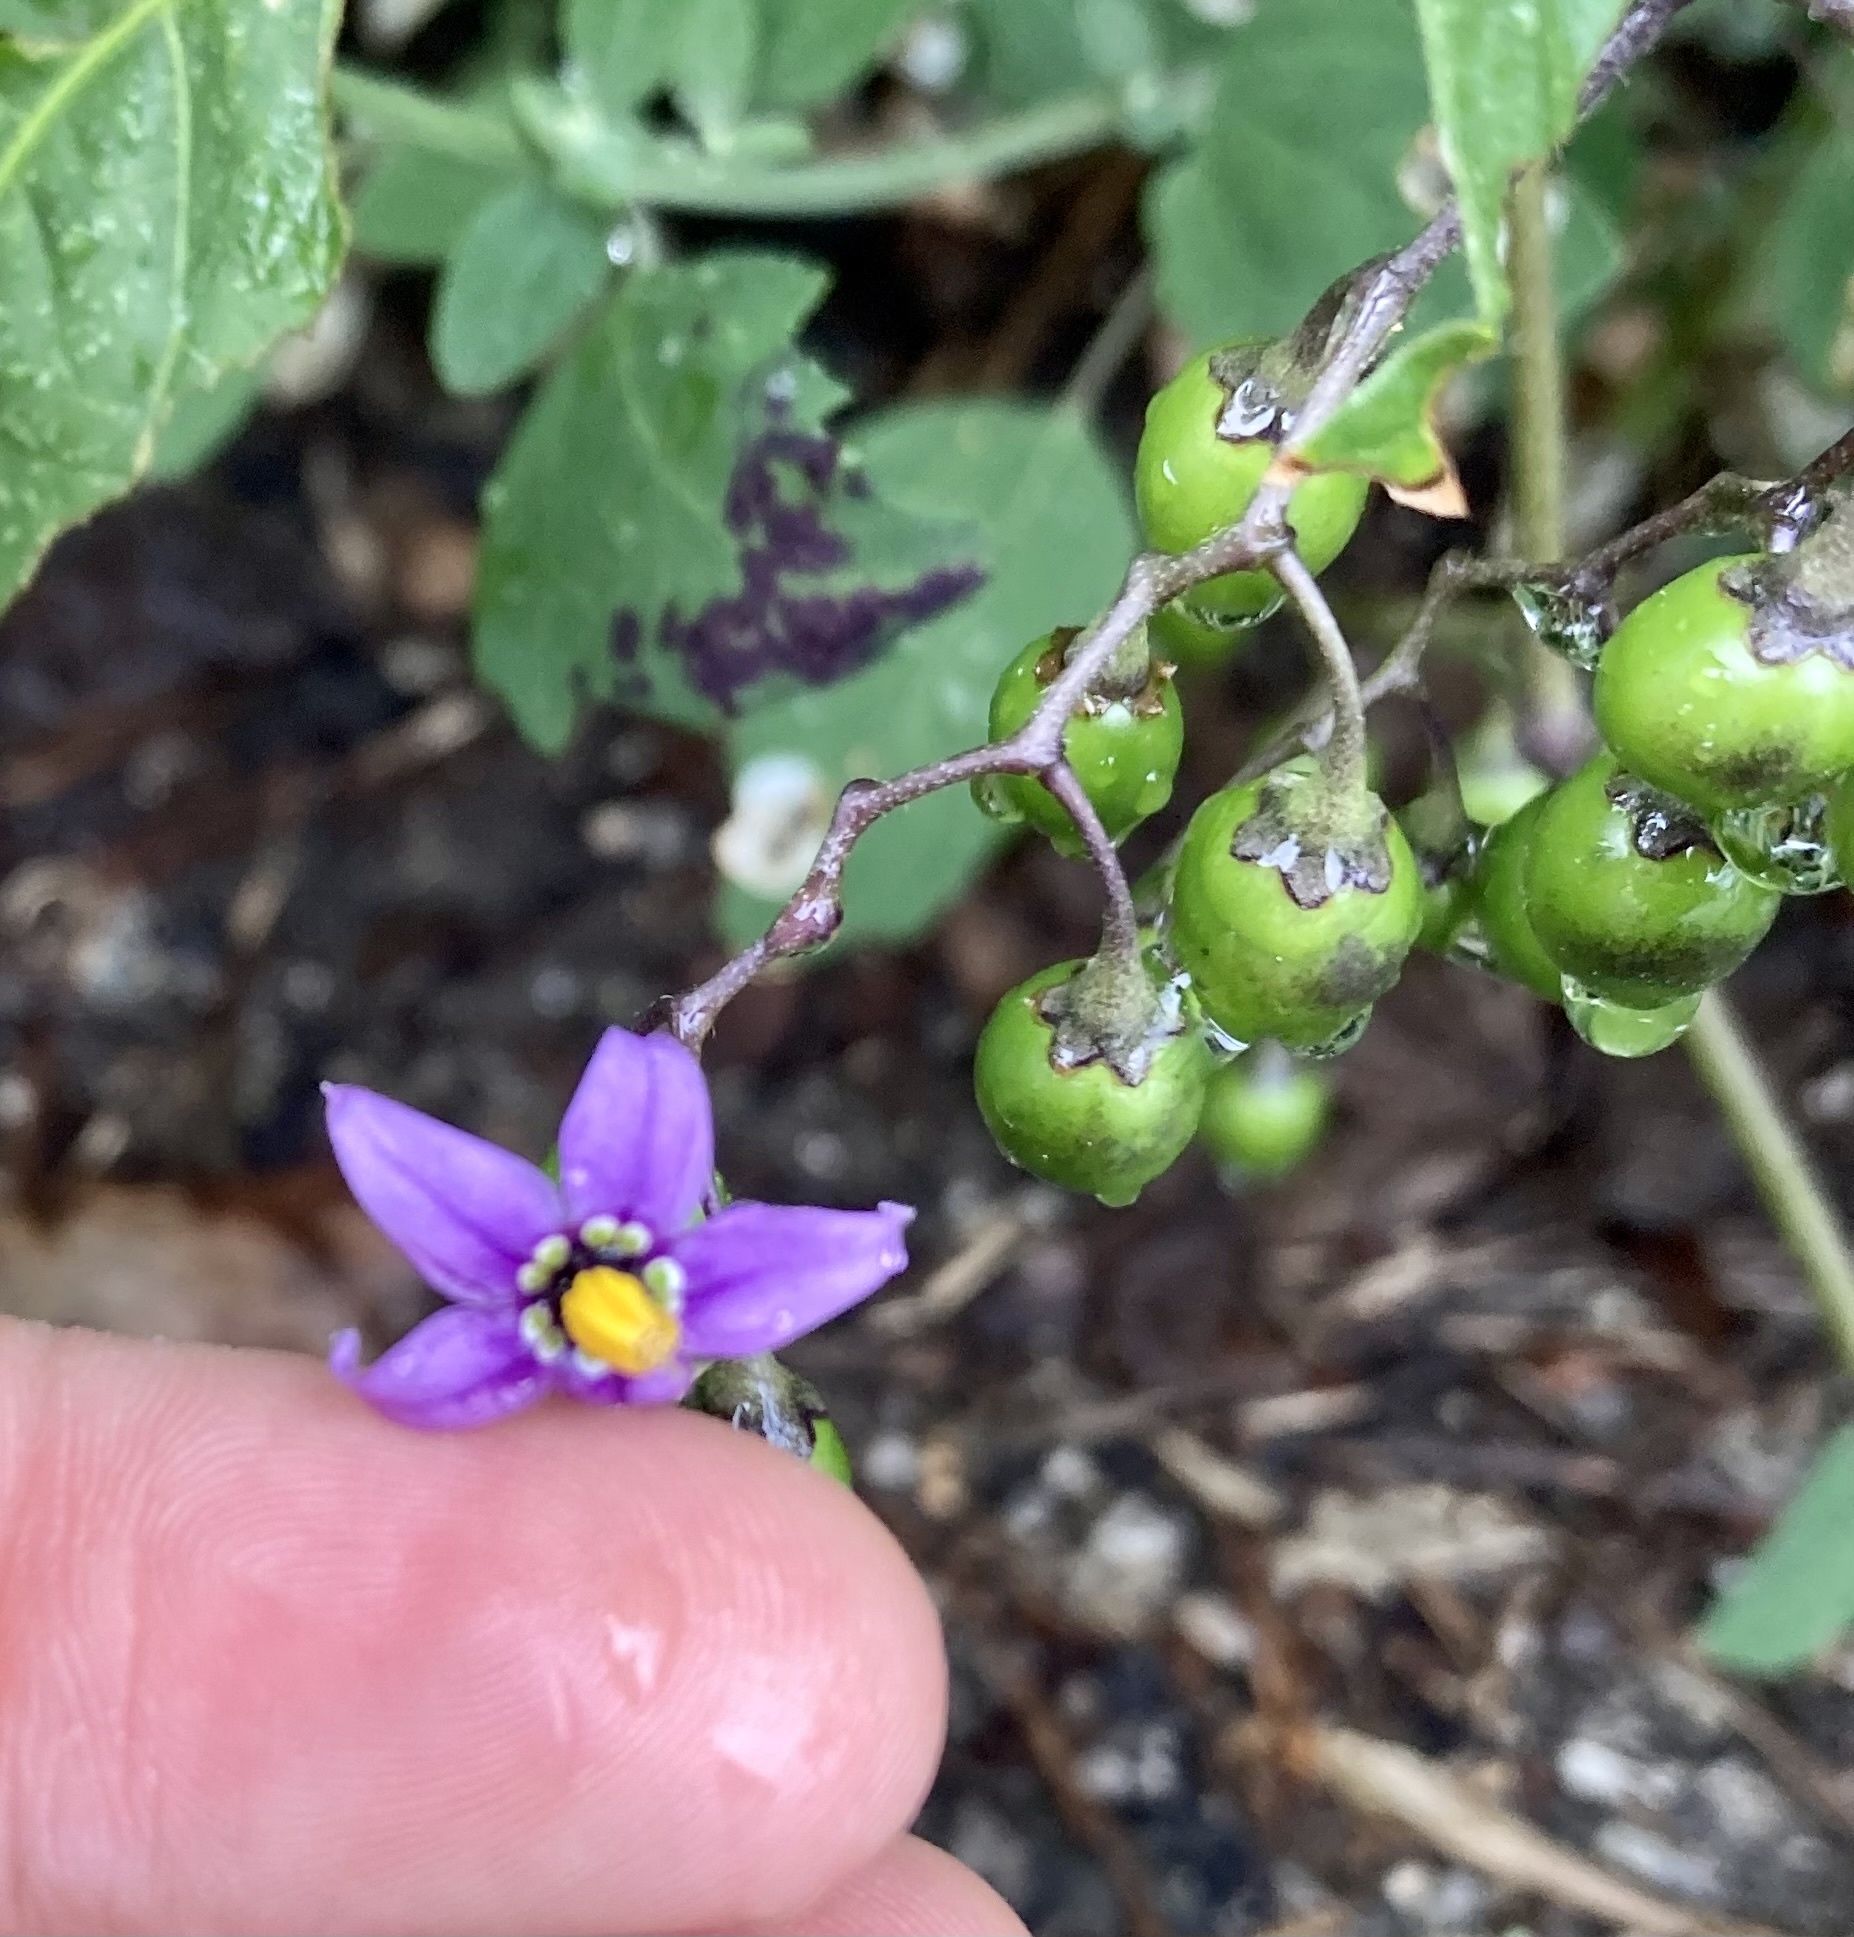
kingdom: Plantae
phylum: Tracheophyta
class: Magnoliopsida
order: Solanales
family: Solanaceae
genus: Solanum
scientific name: Solanum dulcamara
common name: Climbing nightshade
